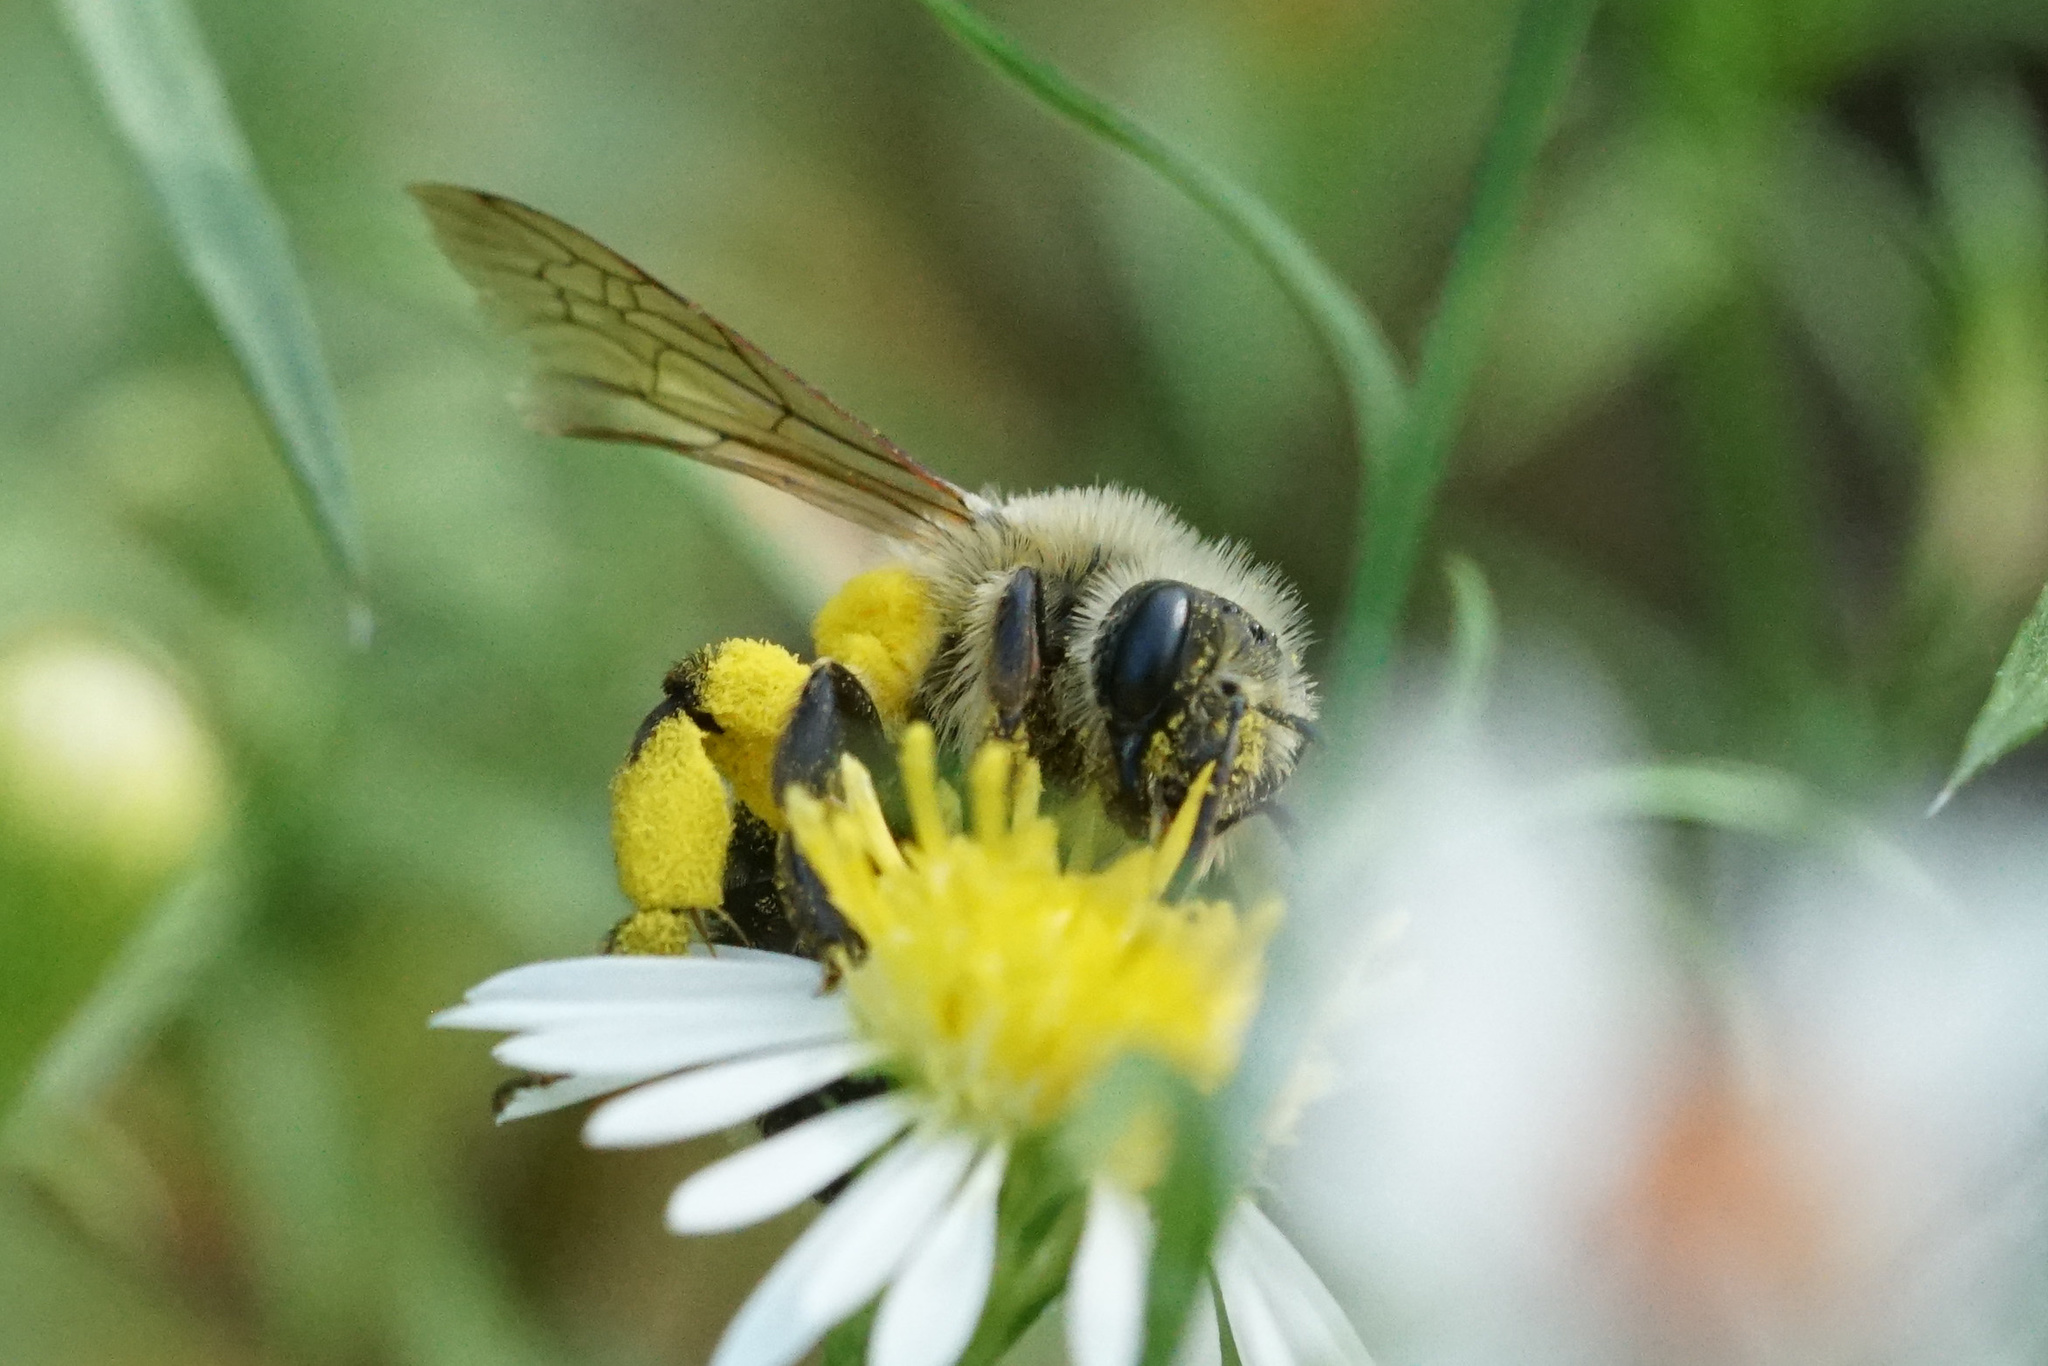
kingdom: Animalia
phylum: Arthropoda
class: Insecta
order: Hymenoptera
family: Andrenidae
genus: Andrena
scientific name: Andrena hirticincta
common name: Hairy-banded mining bee
